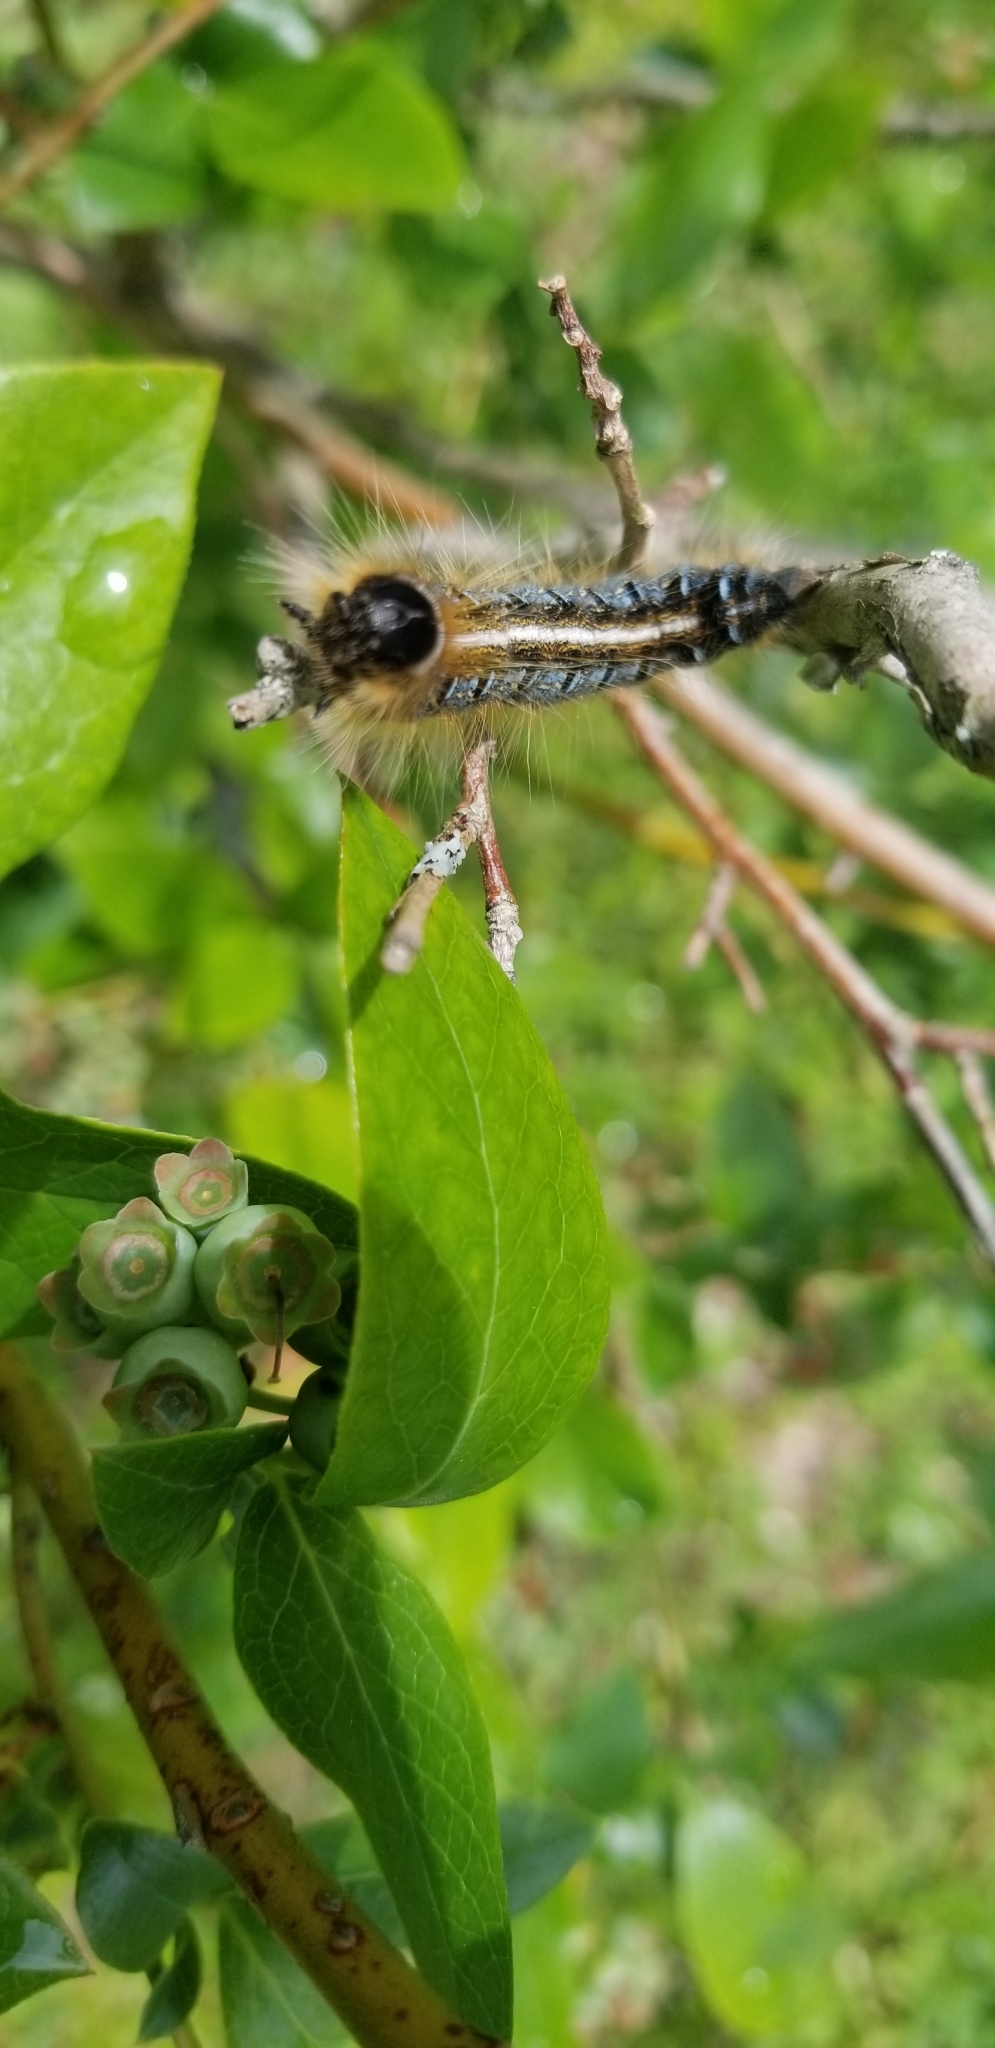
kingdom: Animalia
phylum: Arthropoda
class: Insecta
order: Lepidoptera
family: Lasiocampidae
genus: Malacosoma
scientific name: Malacosoma americana
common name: Eastern tent caterpillar moth
